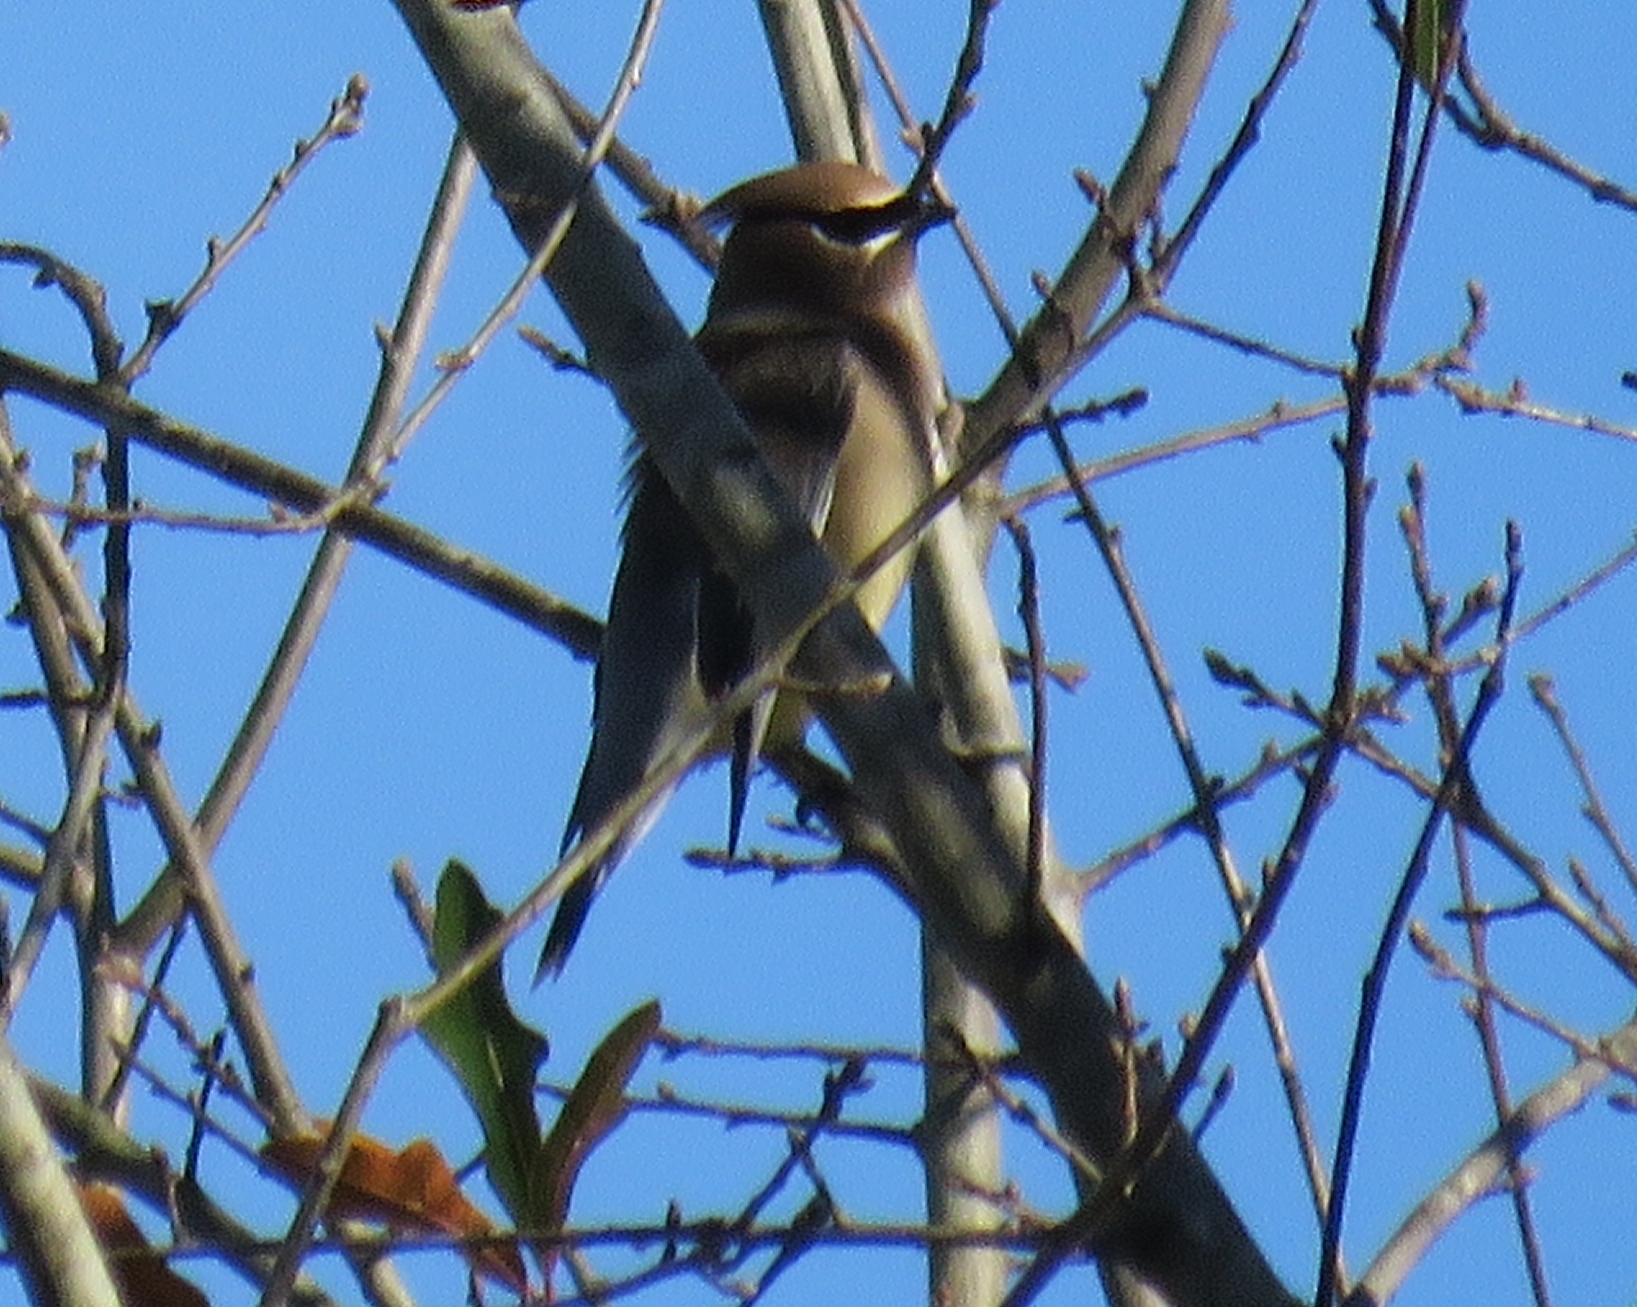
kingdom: Animalia
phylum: Chordata
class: Aves
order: Passeriformes
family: Bombycillidae
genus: Bombycilla
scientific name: Bombycilla cedrorum
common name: Cedar waxwing
